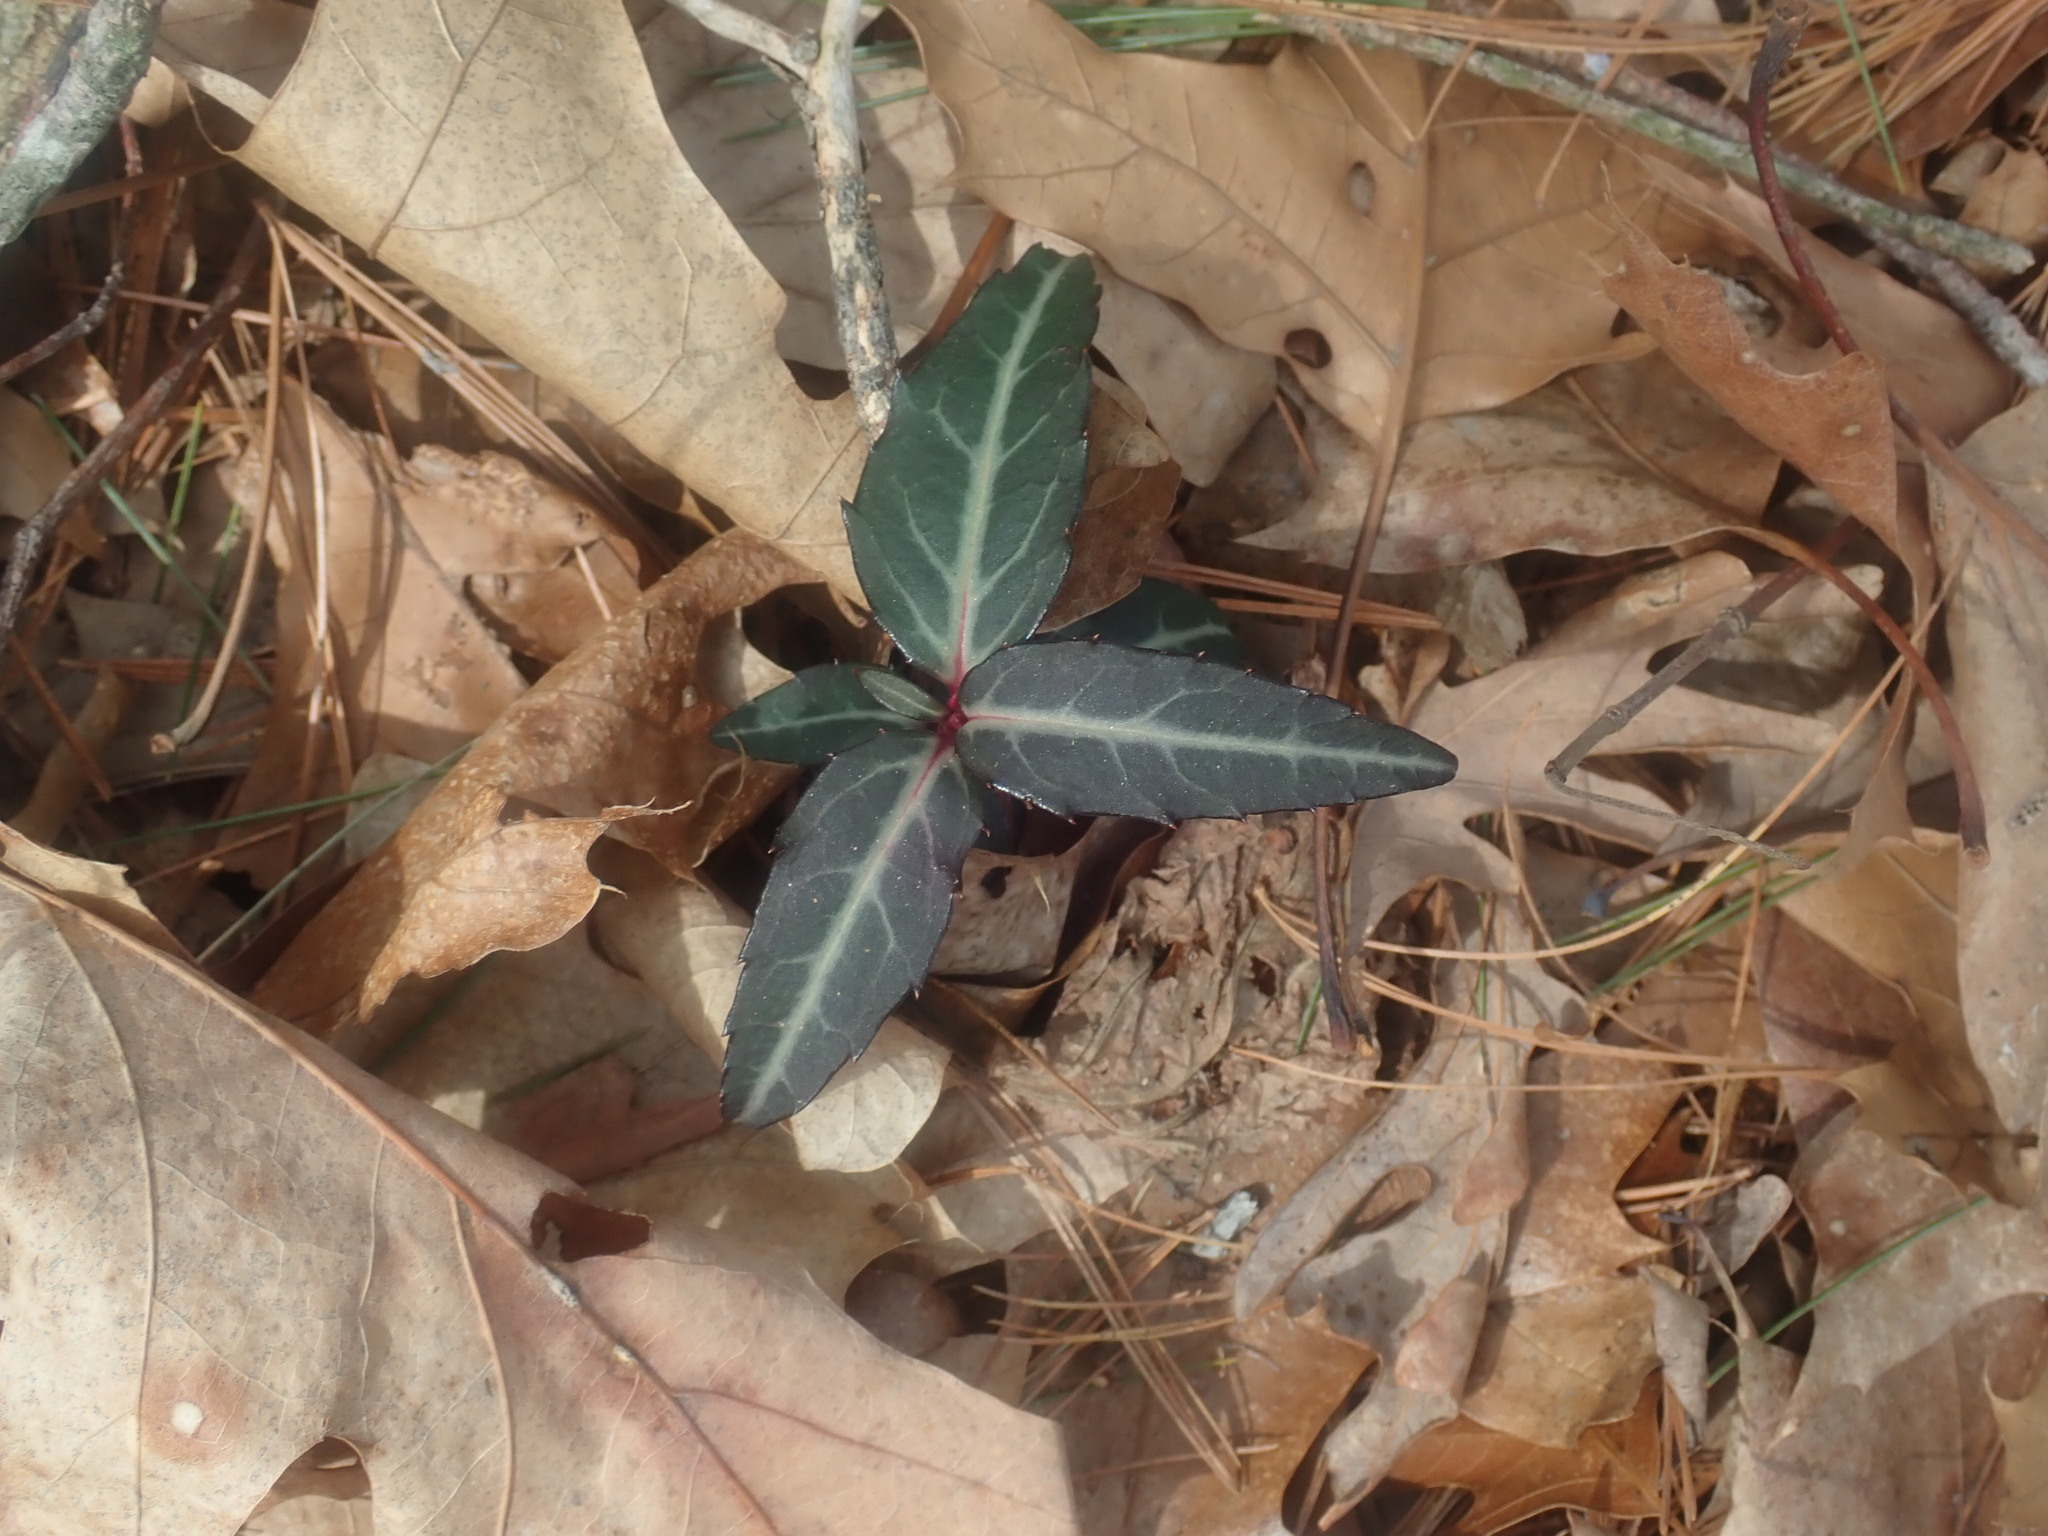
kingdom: Plantae
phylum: Tracheophyta
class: Magnoliopsida
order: Ericales
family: Ericaceae
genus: Chimaphila
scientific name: Chimaphila maculata
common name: Spotted pipsissewa
